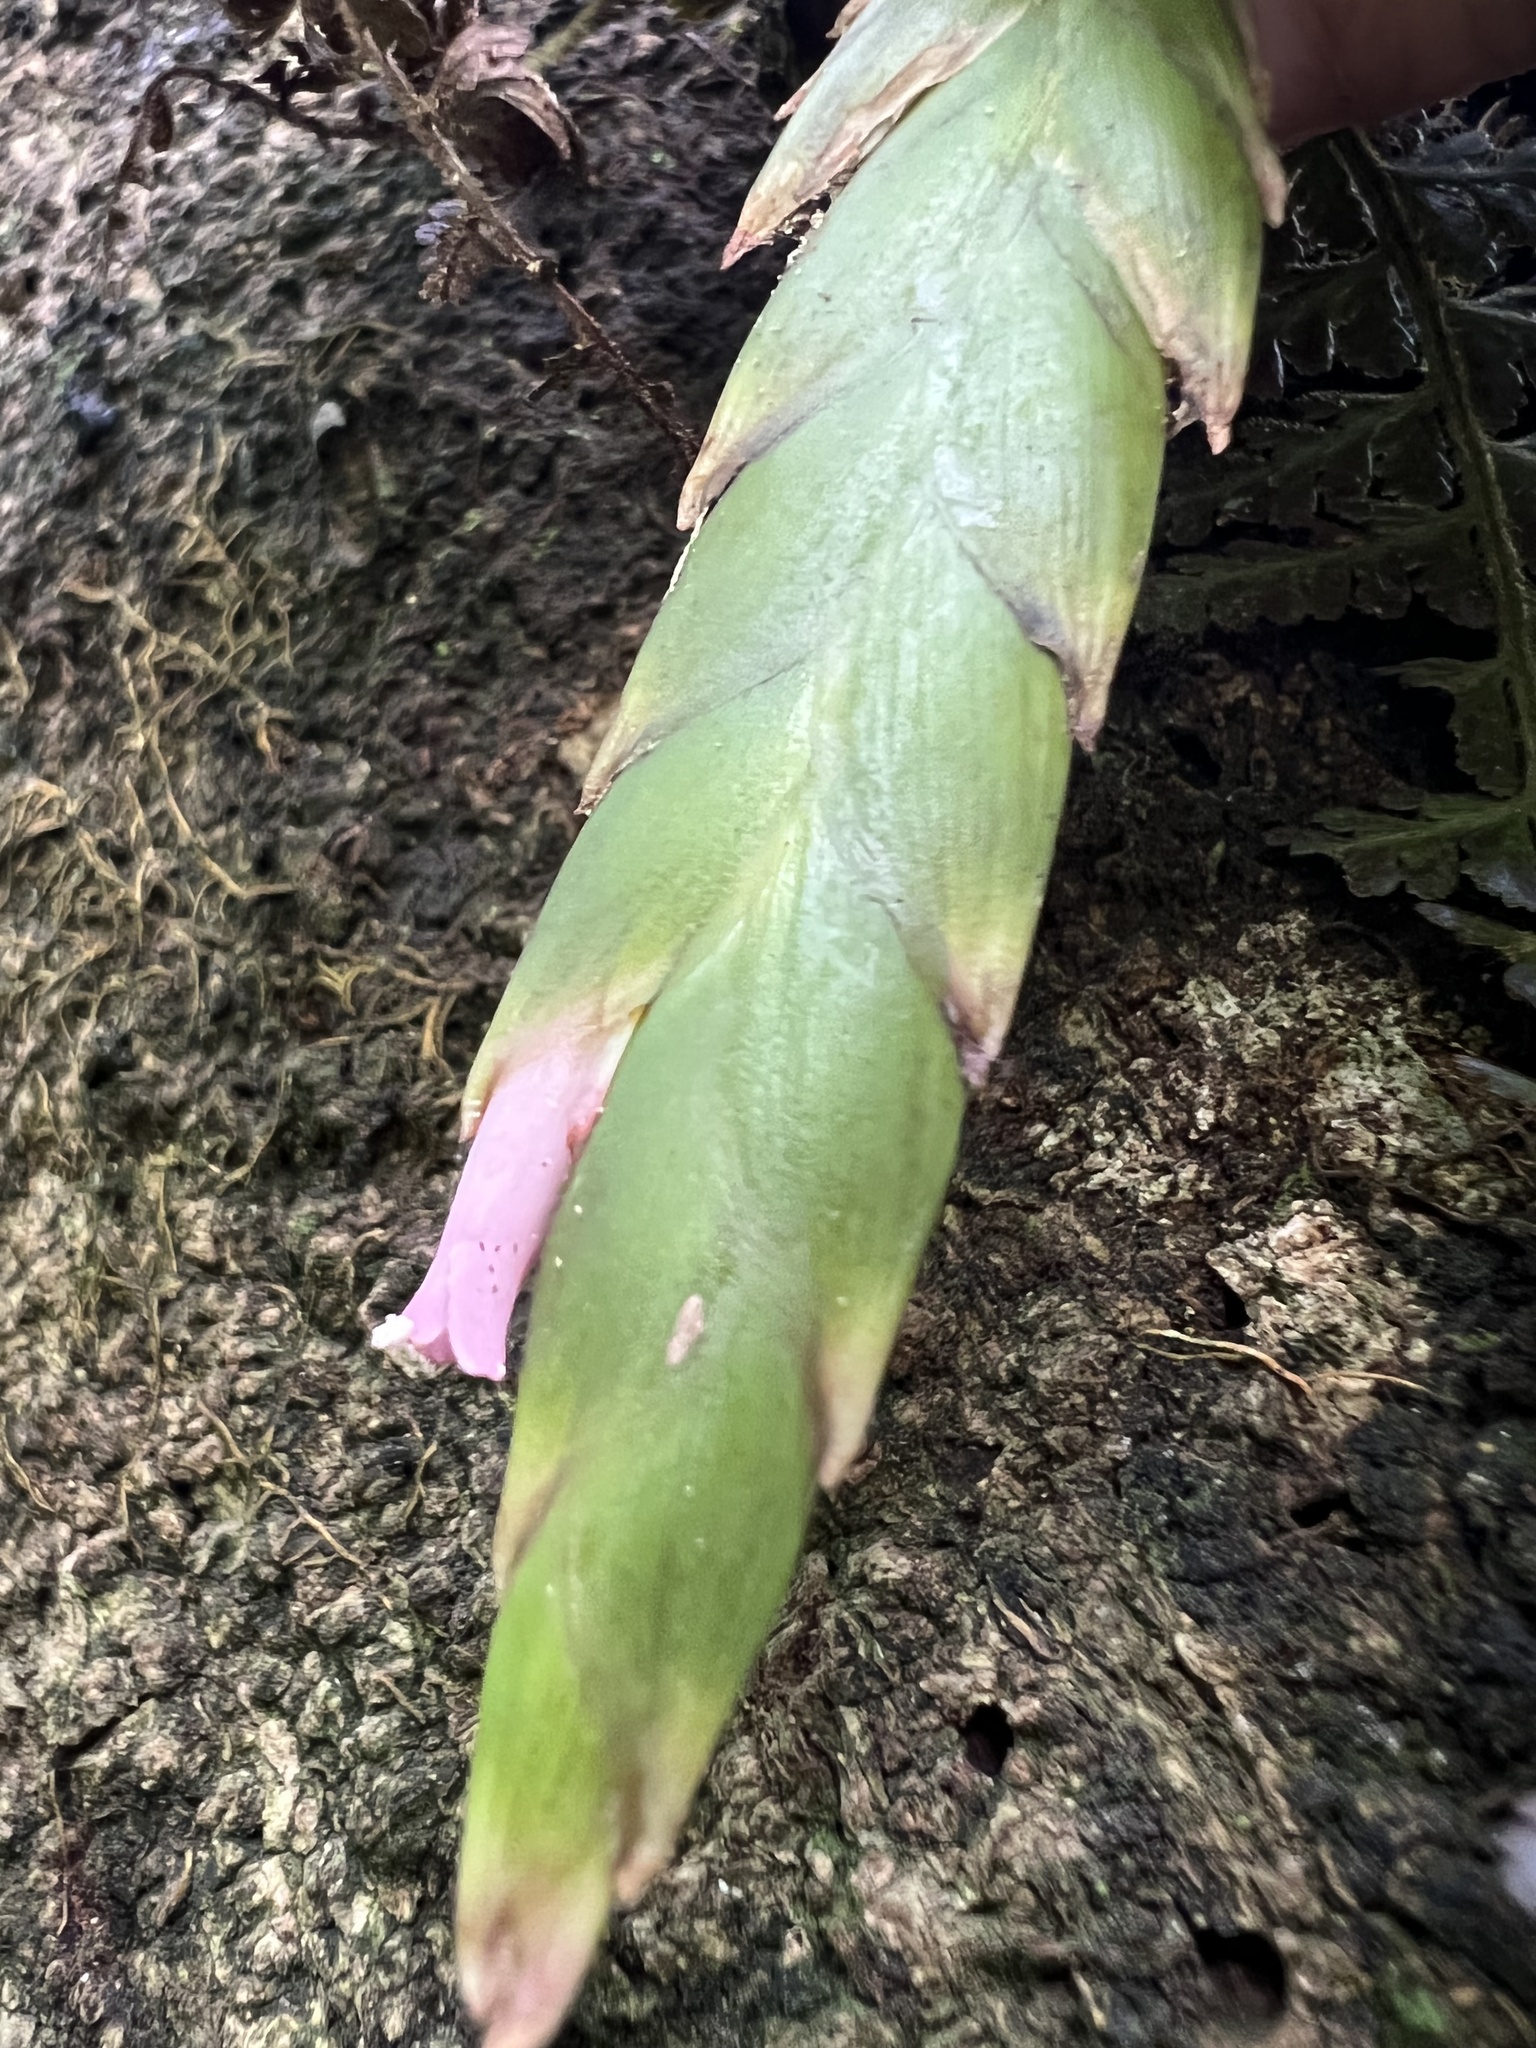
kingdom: Plantae
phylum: Tracheophyta
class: Liliopsida
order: Poales
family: Bromeliaceae
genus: Tillandsia
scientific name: Tillandsia complanata
